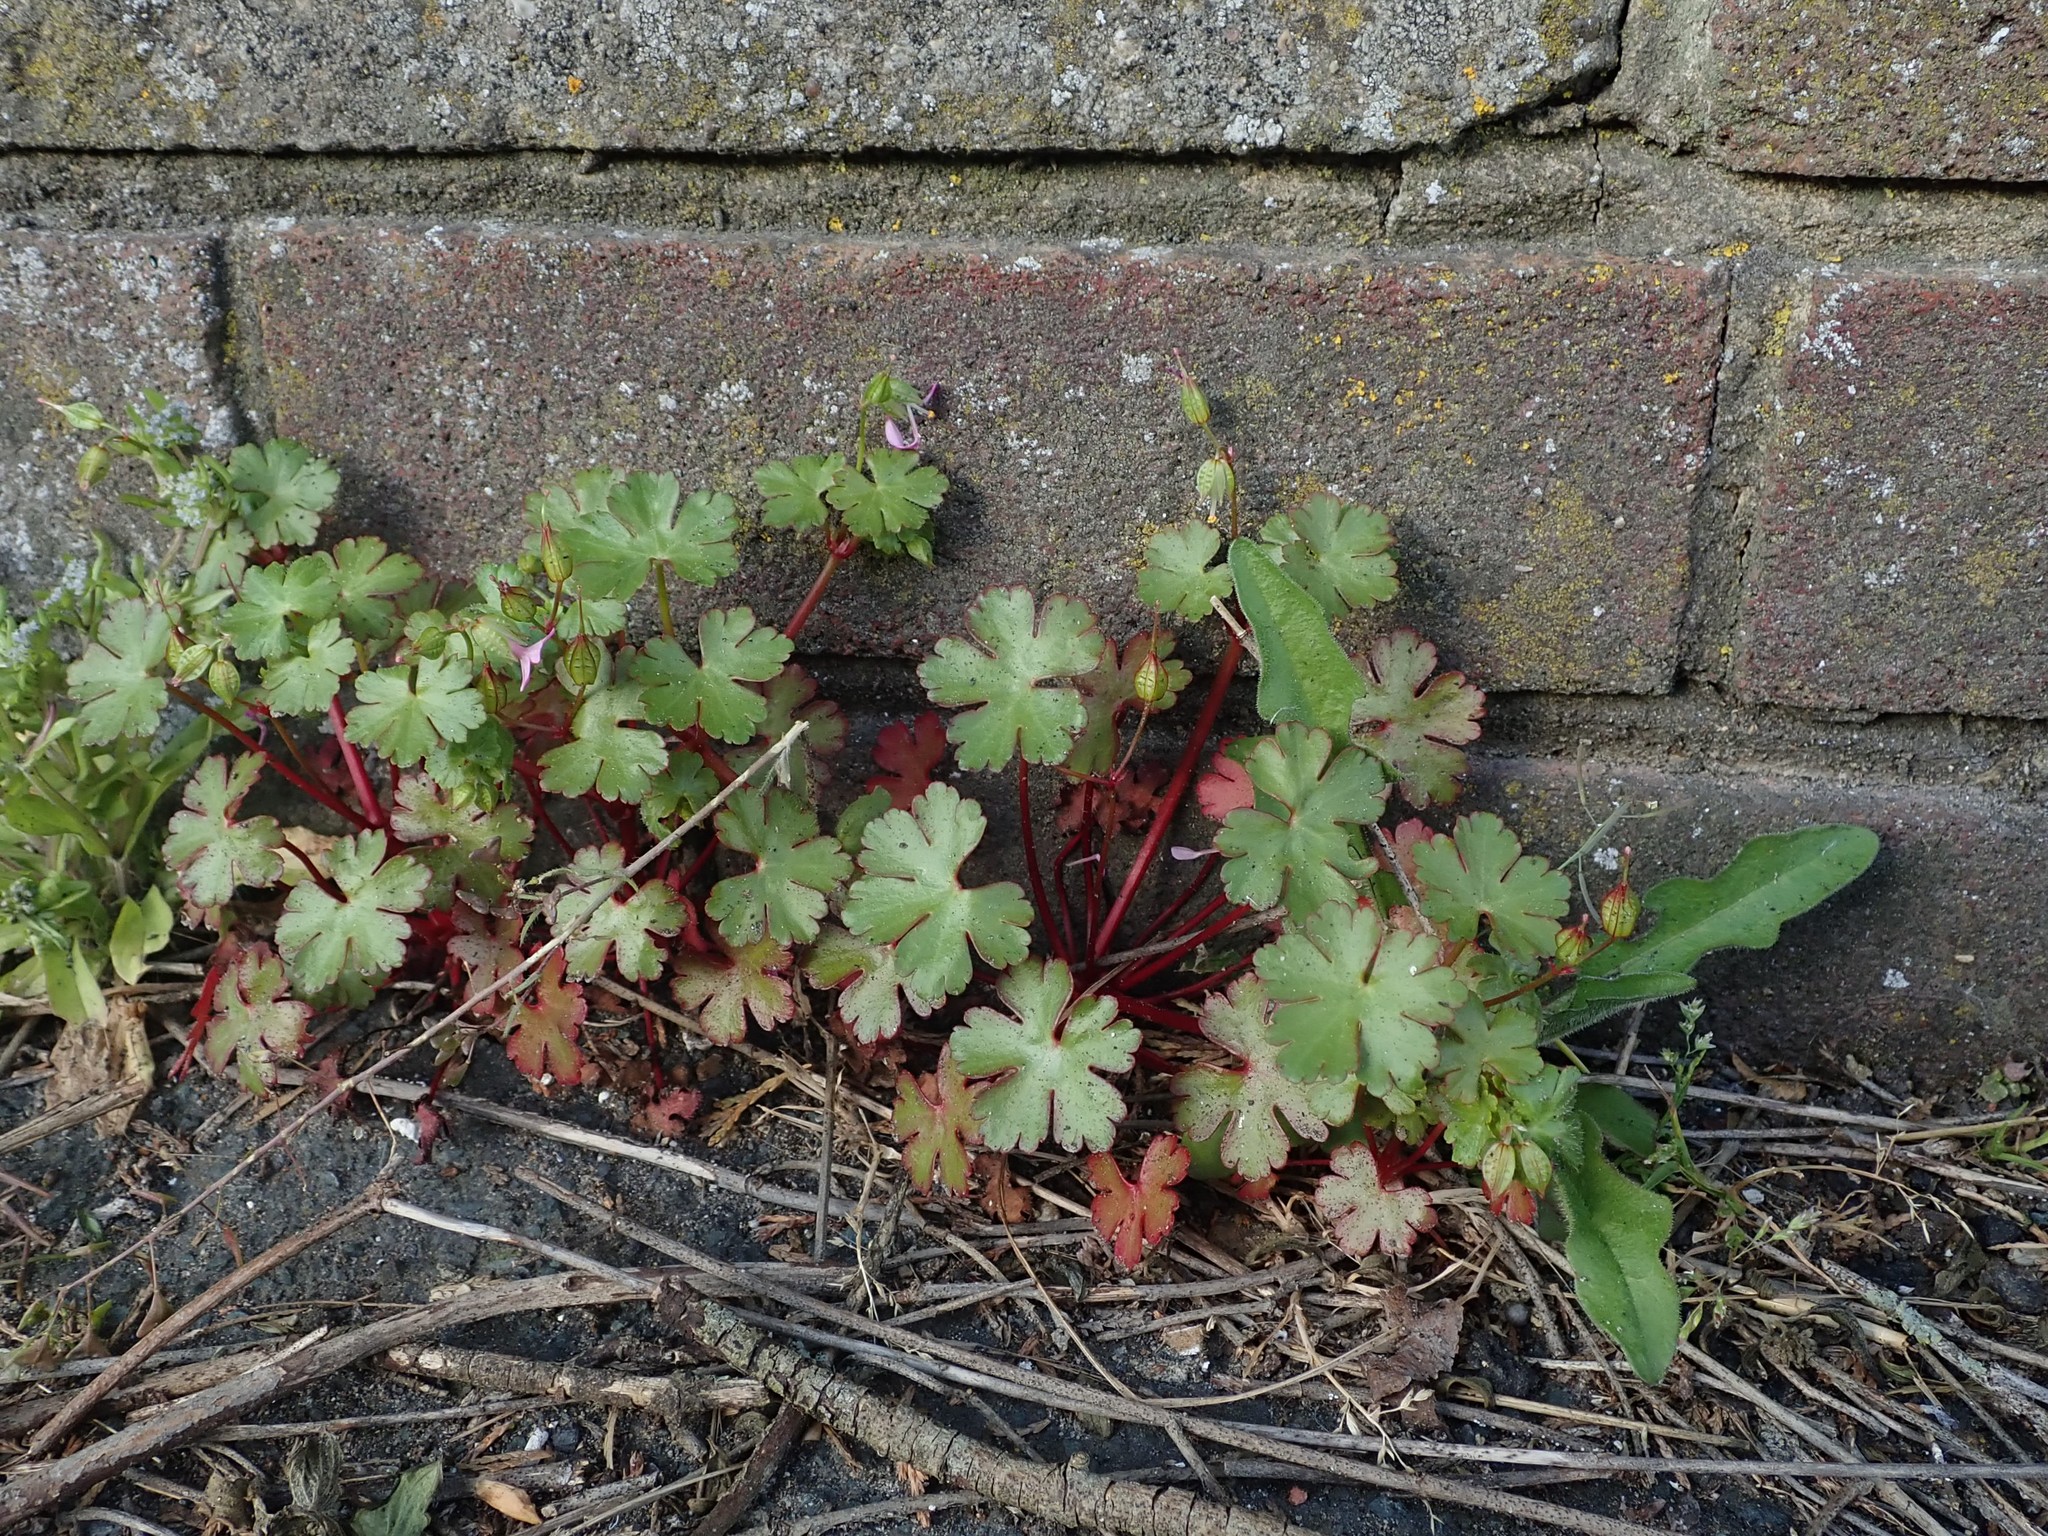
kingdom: Plantae
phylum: Tracheophyta
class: Magnoliopsida
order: Geraniales
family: Geraniaceae
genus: Geranium
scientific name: Geranium lucidum
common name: Shining crane's-bill
